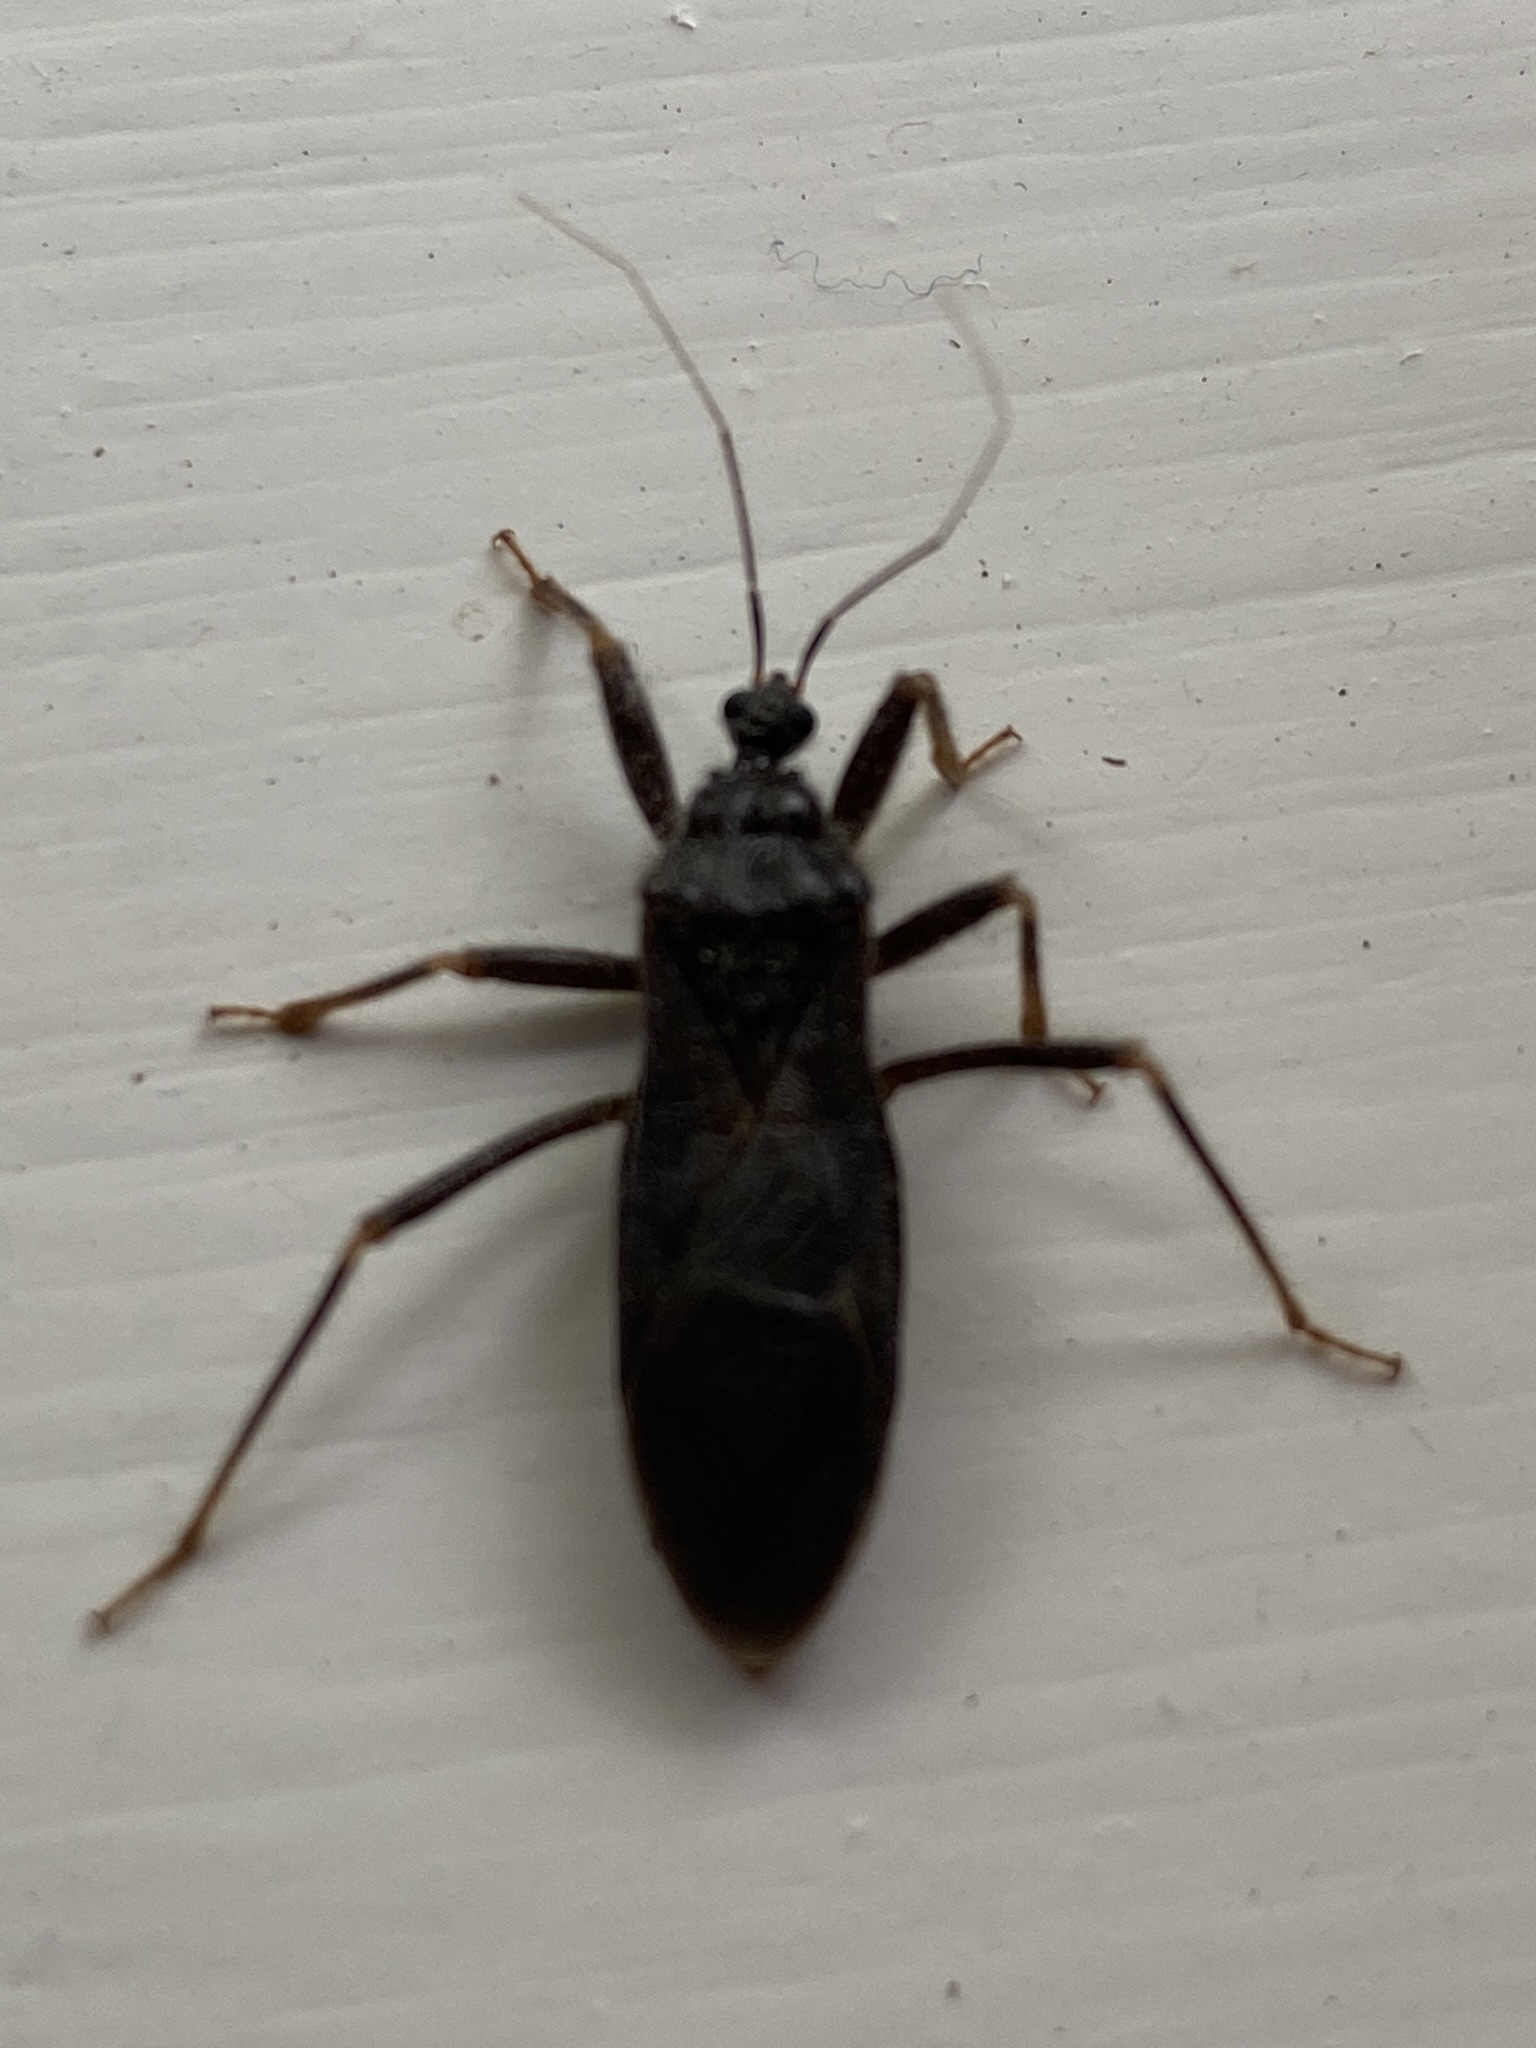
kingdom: Animalia
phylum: Arthropoda
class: Insecta
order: Hemiptera
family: Reduviidae
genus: Reduvius
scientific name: Reduvius personatus
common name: Masked hunter
